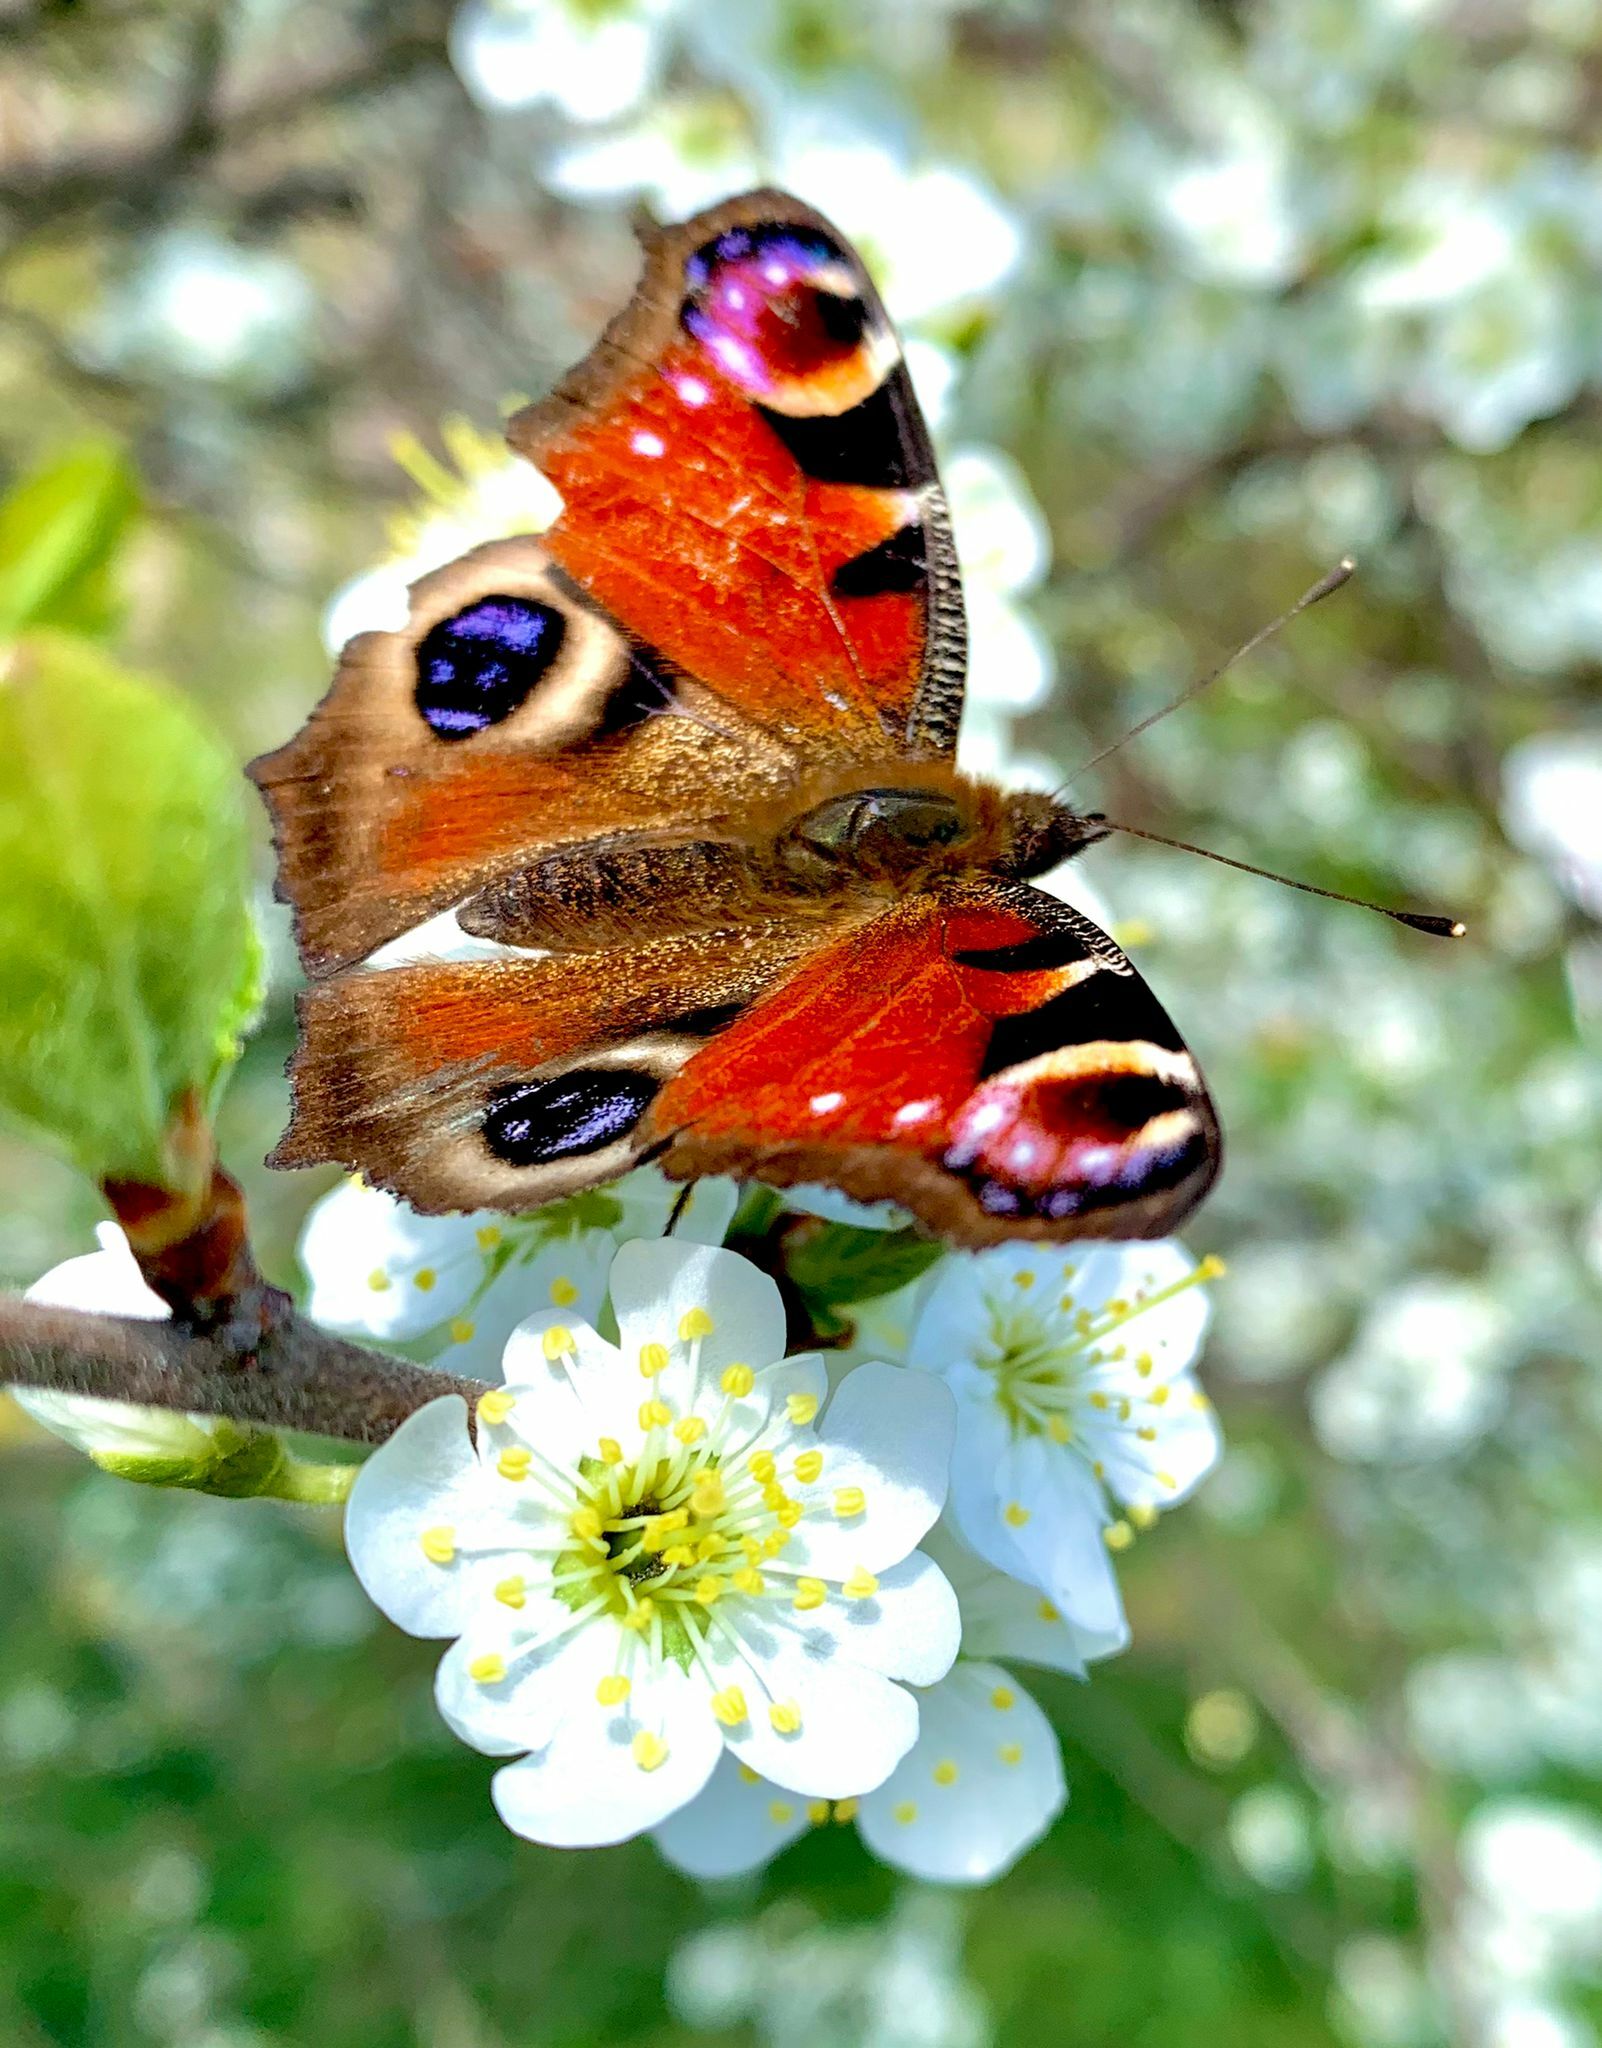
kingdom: Animalia
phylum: Arthropoda
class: Insecta
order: Lepidoptera
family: Nymphalidae
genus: Aglais
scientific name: Aglais io
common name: Peacock
